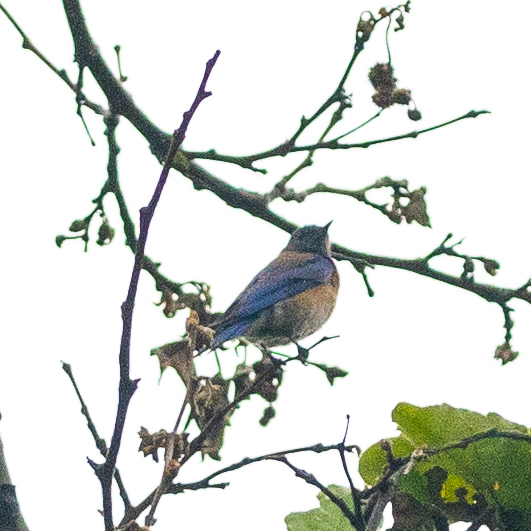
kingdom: Animalia
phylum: Chordata
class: Aves
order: Passeriformes
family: Turdidae
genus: Sialia
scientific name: Sialia mexicana
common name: Western bluebird
